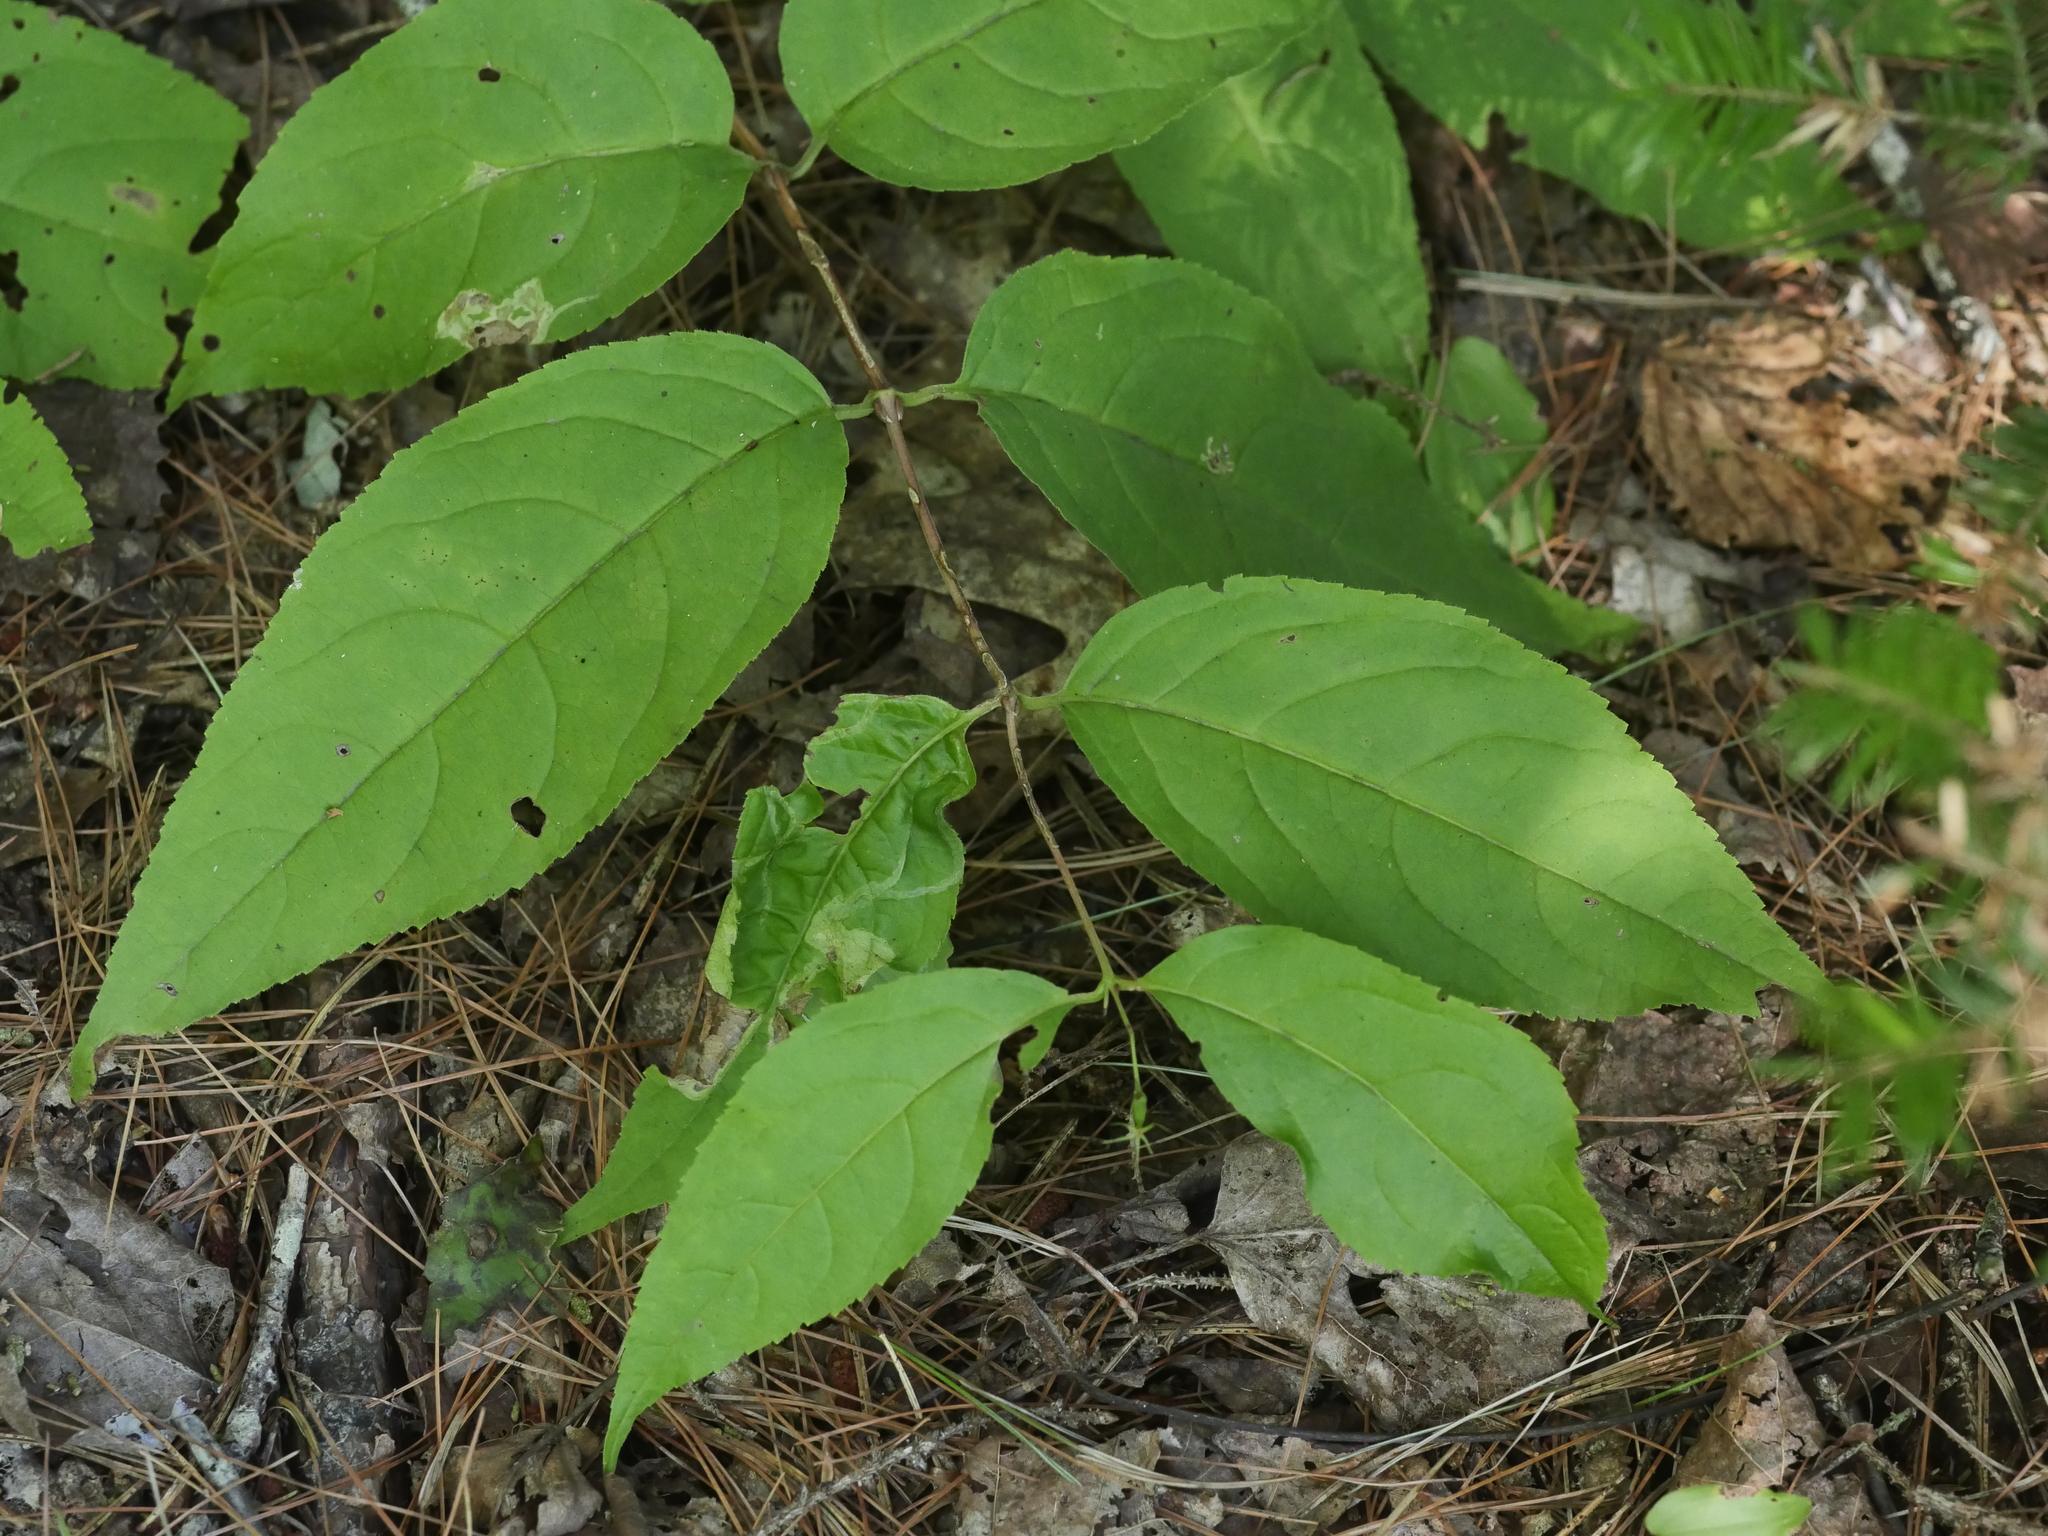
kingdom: Plantae
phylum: Tracheophyta
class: Magnoliopsida
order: Dipsacales
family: Caprifoliaceae
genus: Diervilla
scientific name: Diervilla lonicera
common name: Bush-honeysuckle
